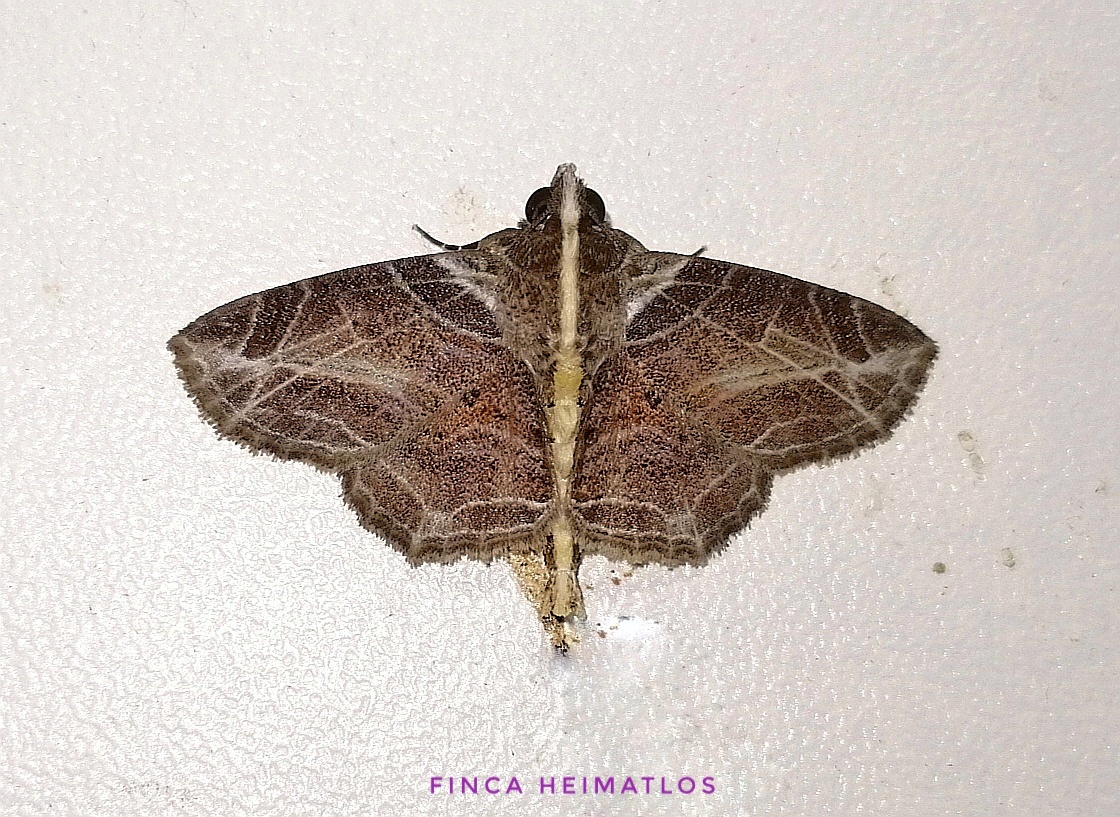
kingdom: Animalia
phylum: Arthropoda
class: Insecta
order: Lepidoptera
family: Erebidae
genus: Dolichosomastis
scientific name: Dolichosomastis leucogrammica
